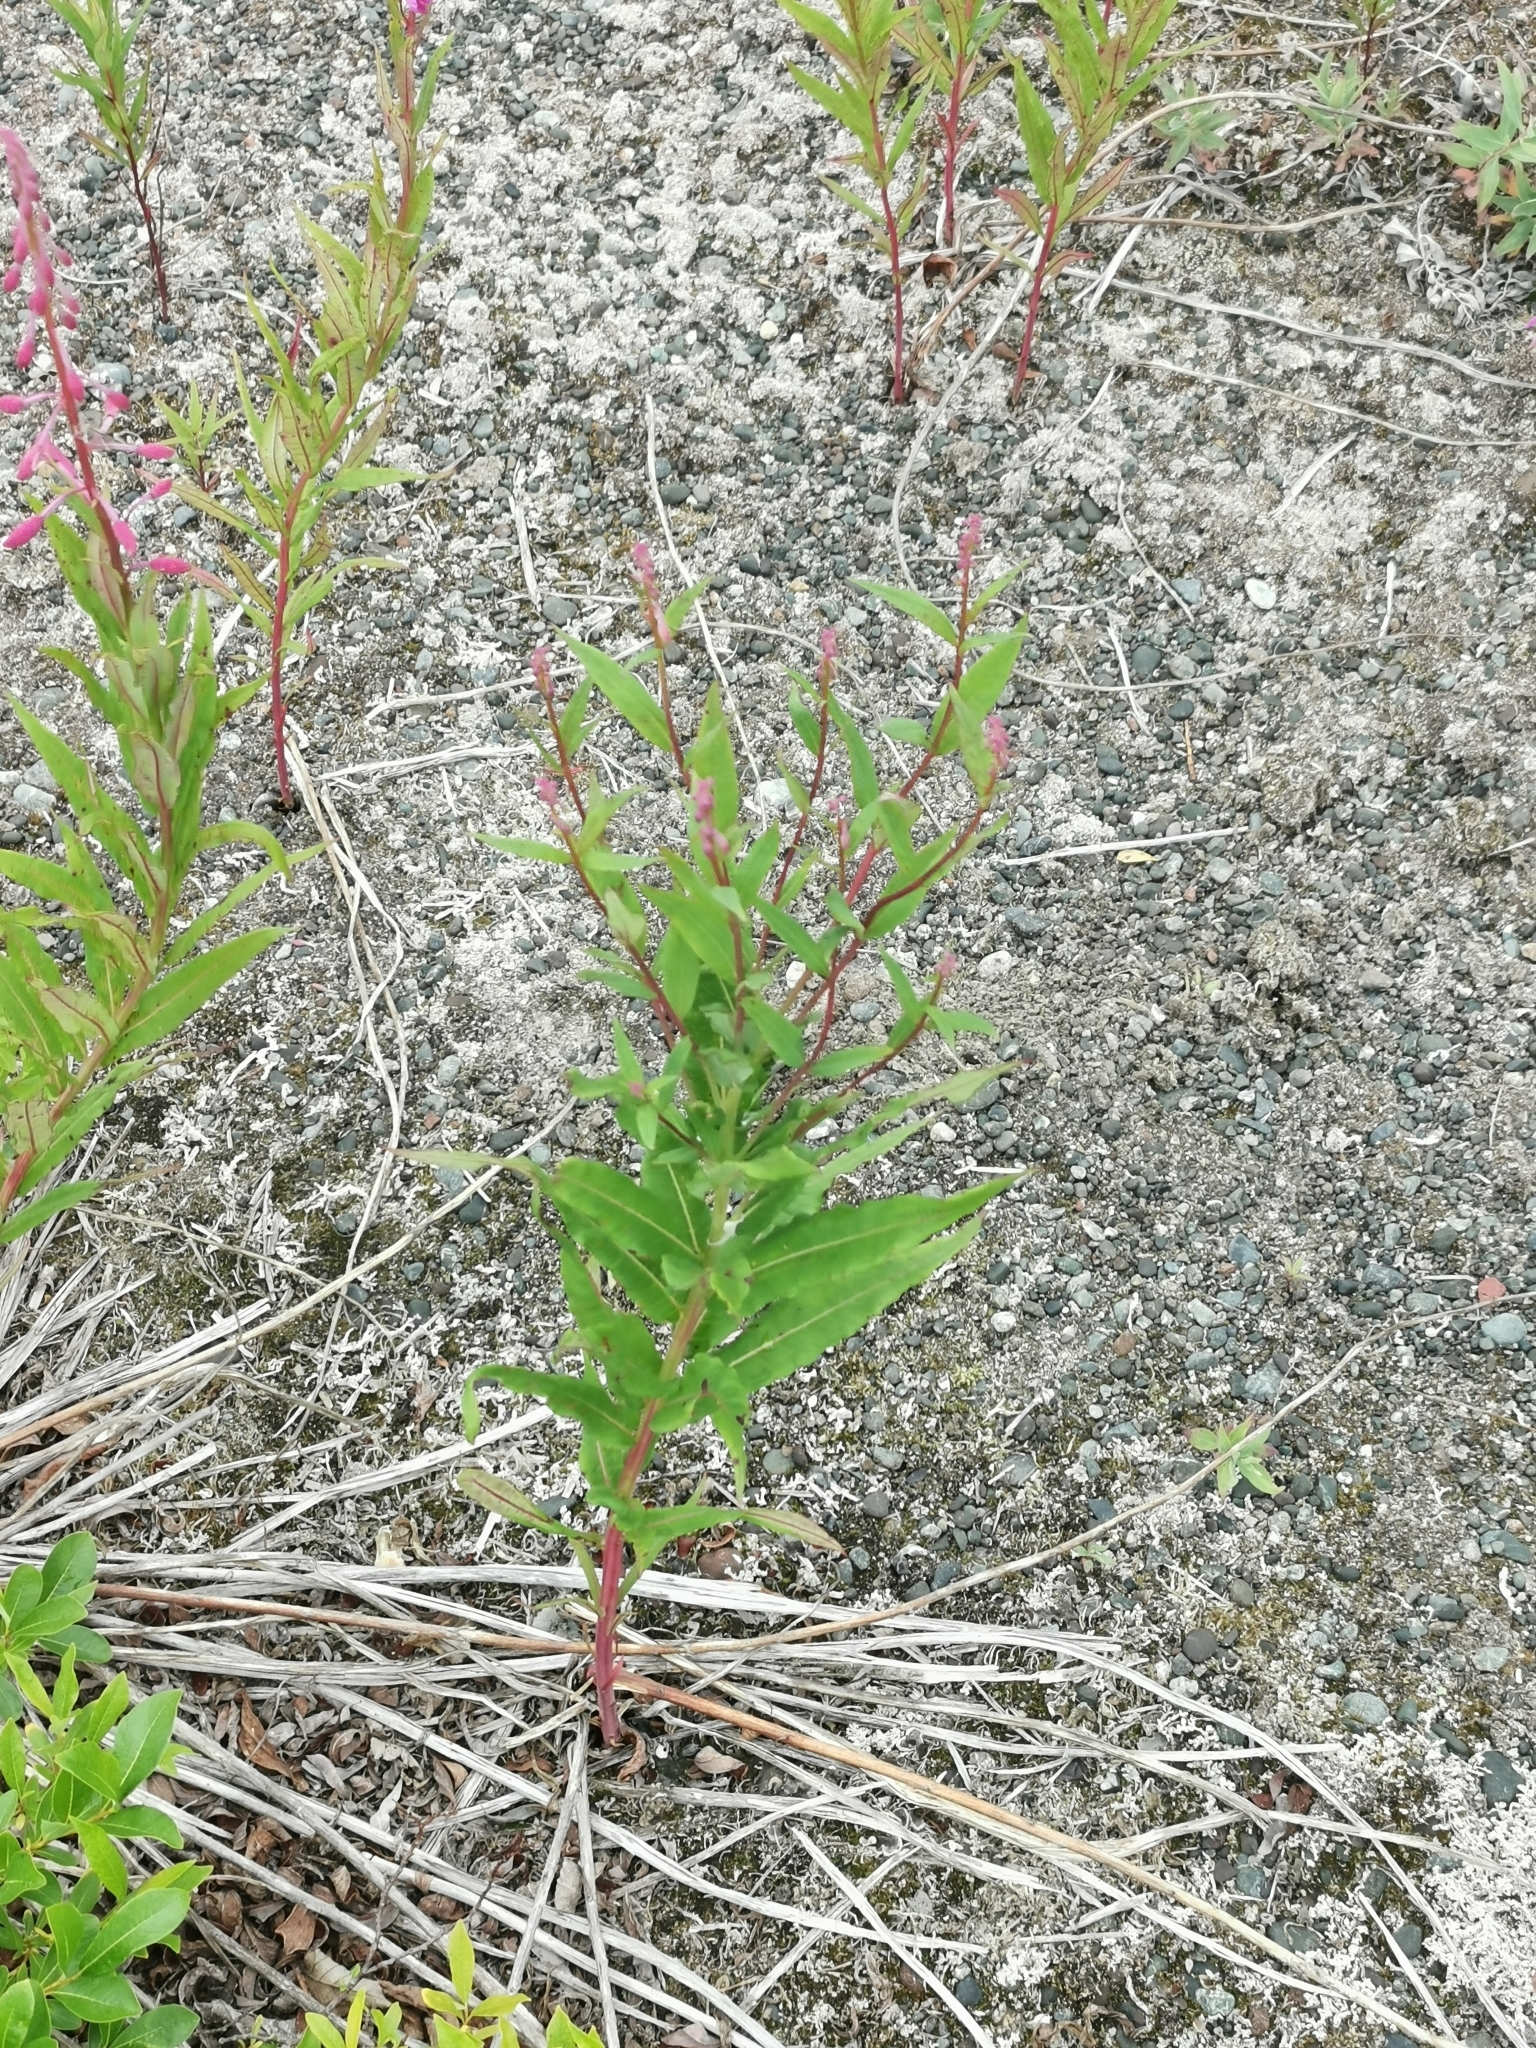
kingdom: Plantae
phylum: Tracheophyta
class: Magnoliopsida
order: Myrtales
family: Onagraceae
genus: Chamaenerion
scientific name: Chamaenerion angustifolium
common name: Fireweed
